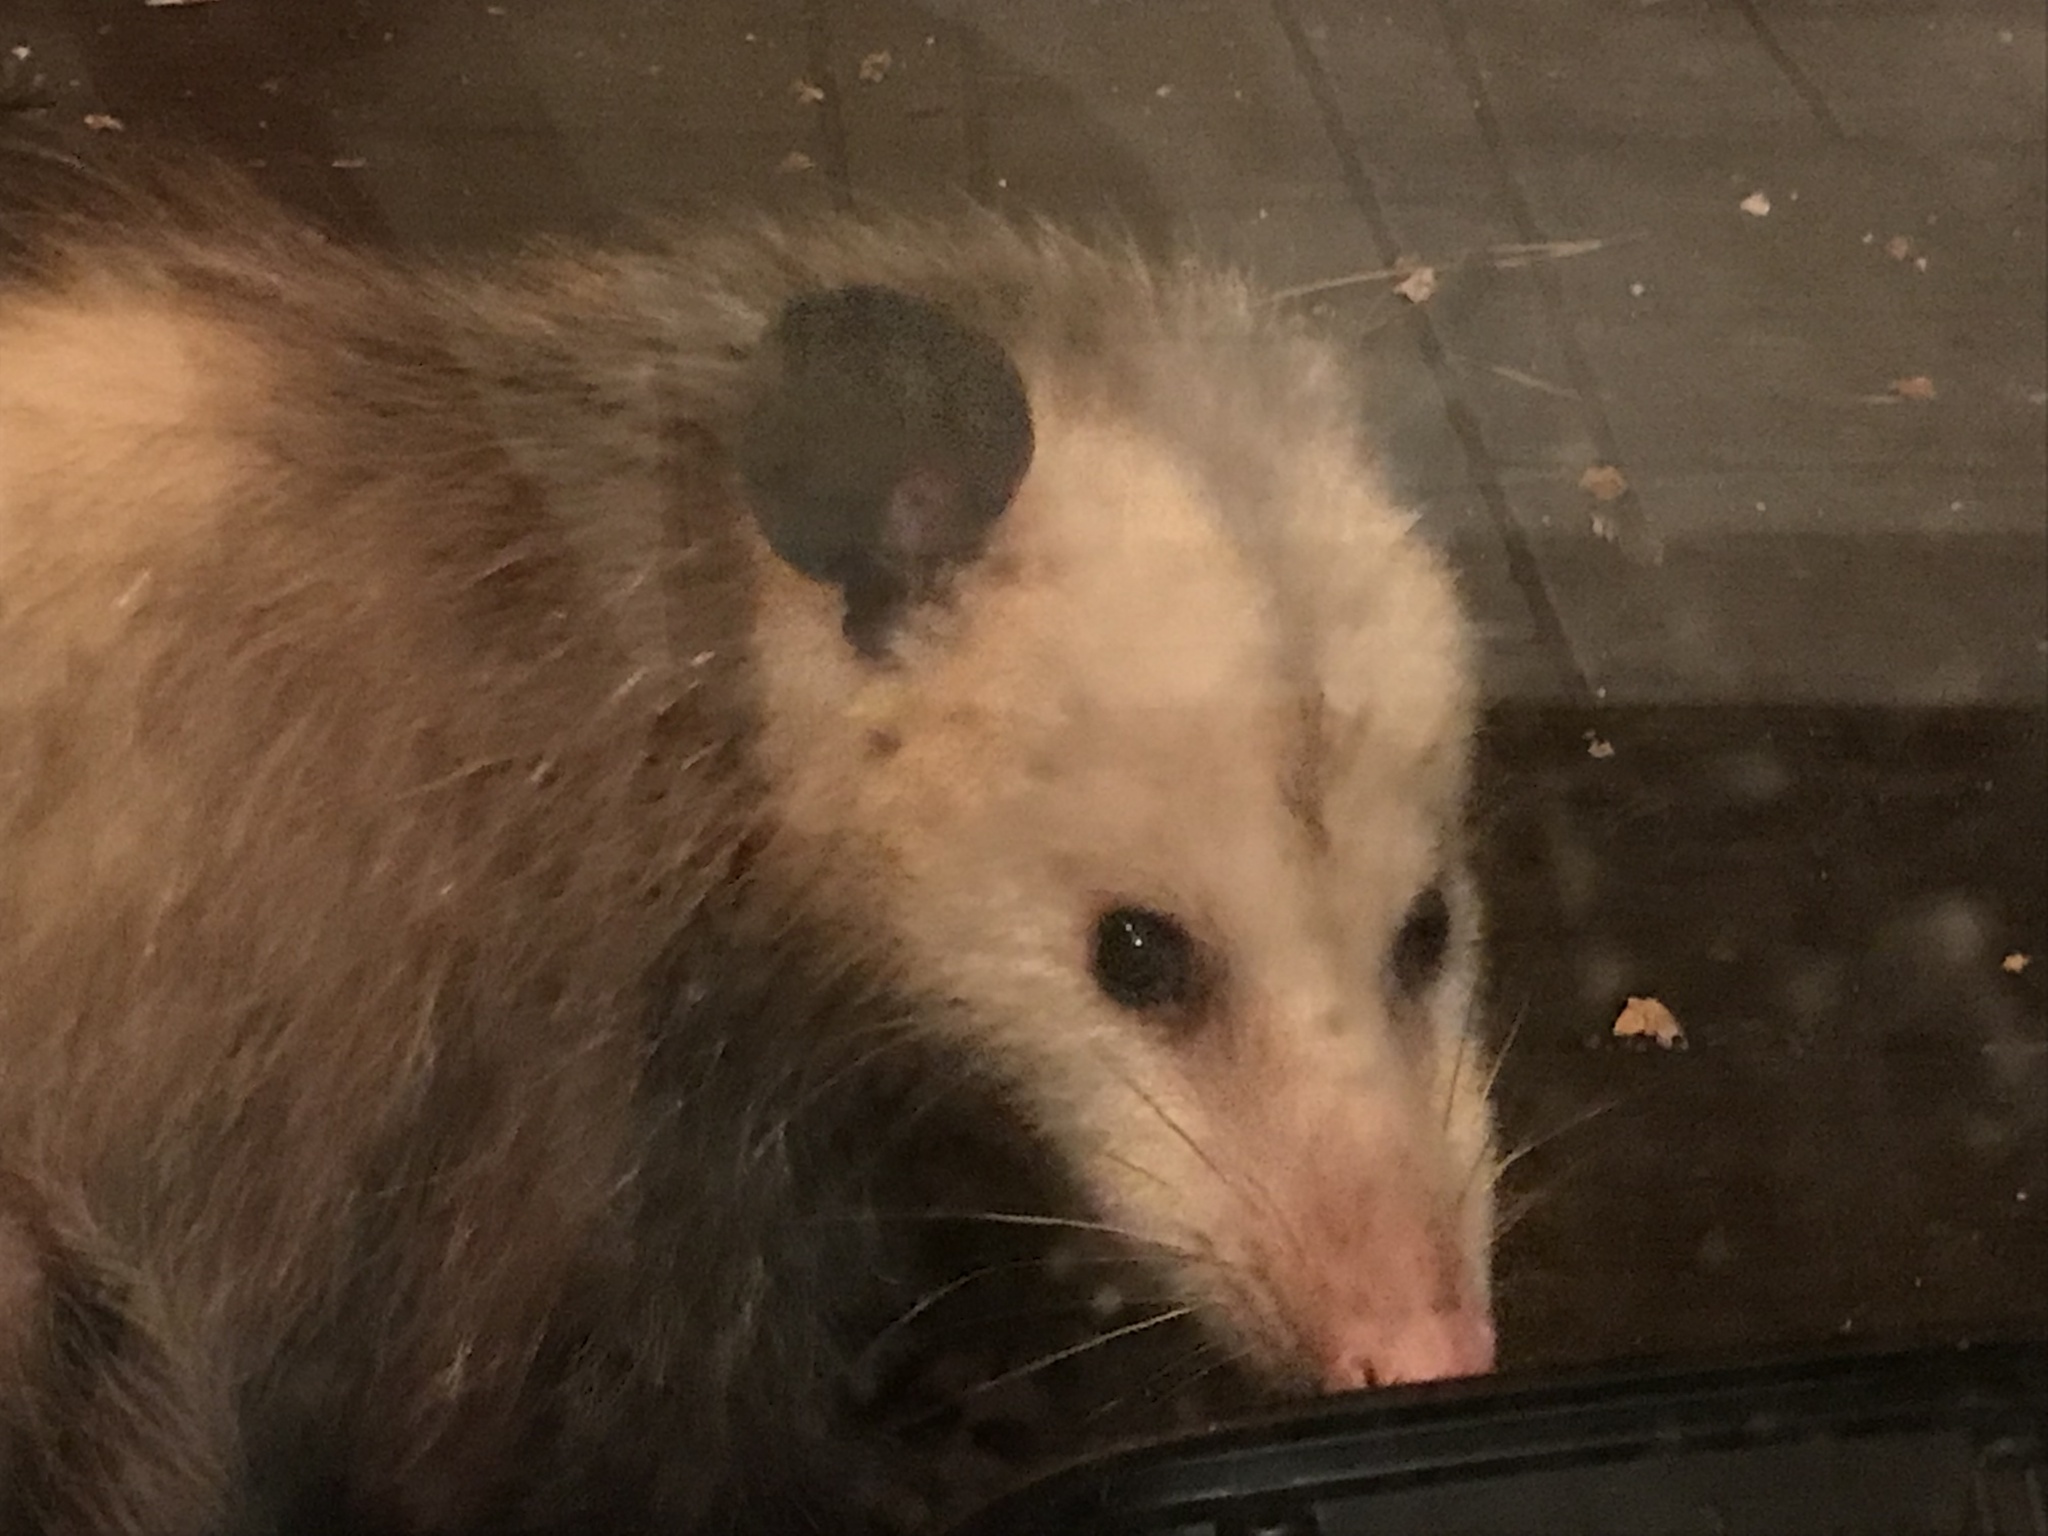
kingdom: Animalia
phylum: Chordata
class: Mammalia
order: Didelphimorphia
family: Didelphidae
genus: Didelphis
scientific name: Didelphis virginiana
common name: Virginia opossum
